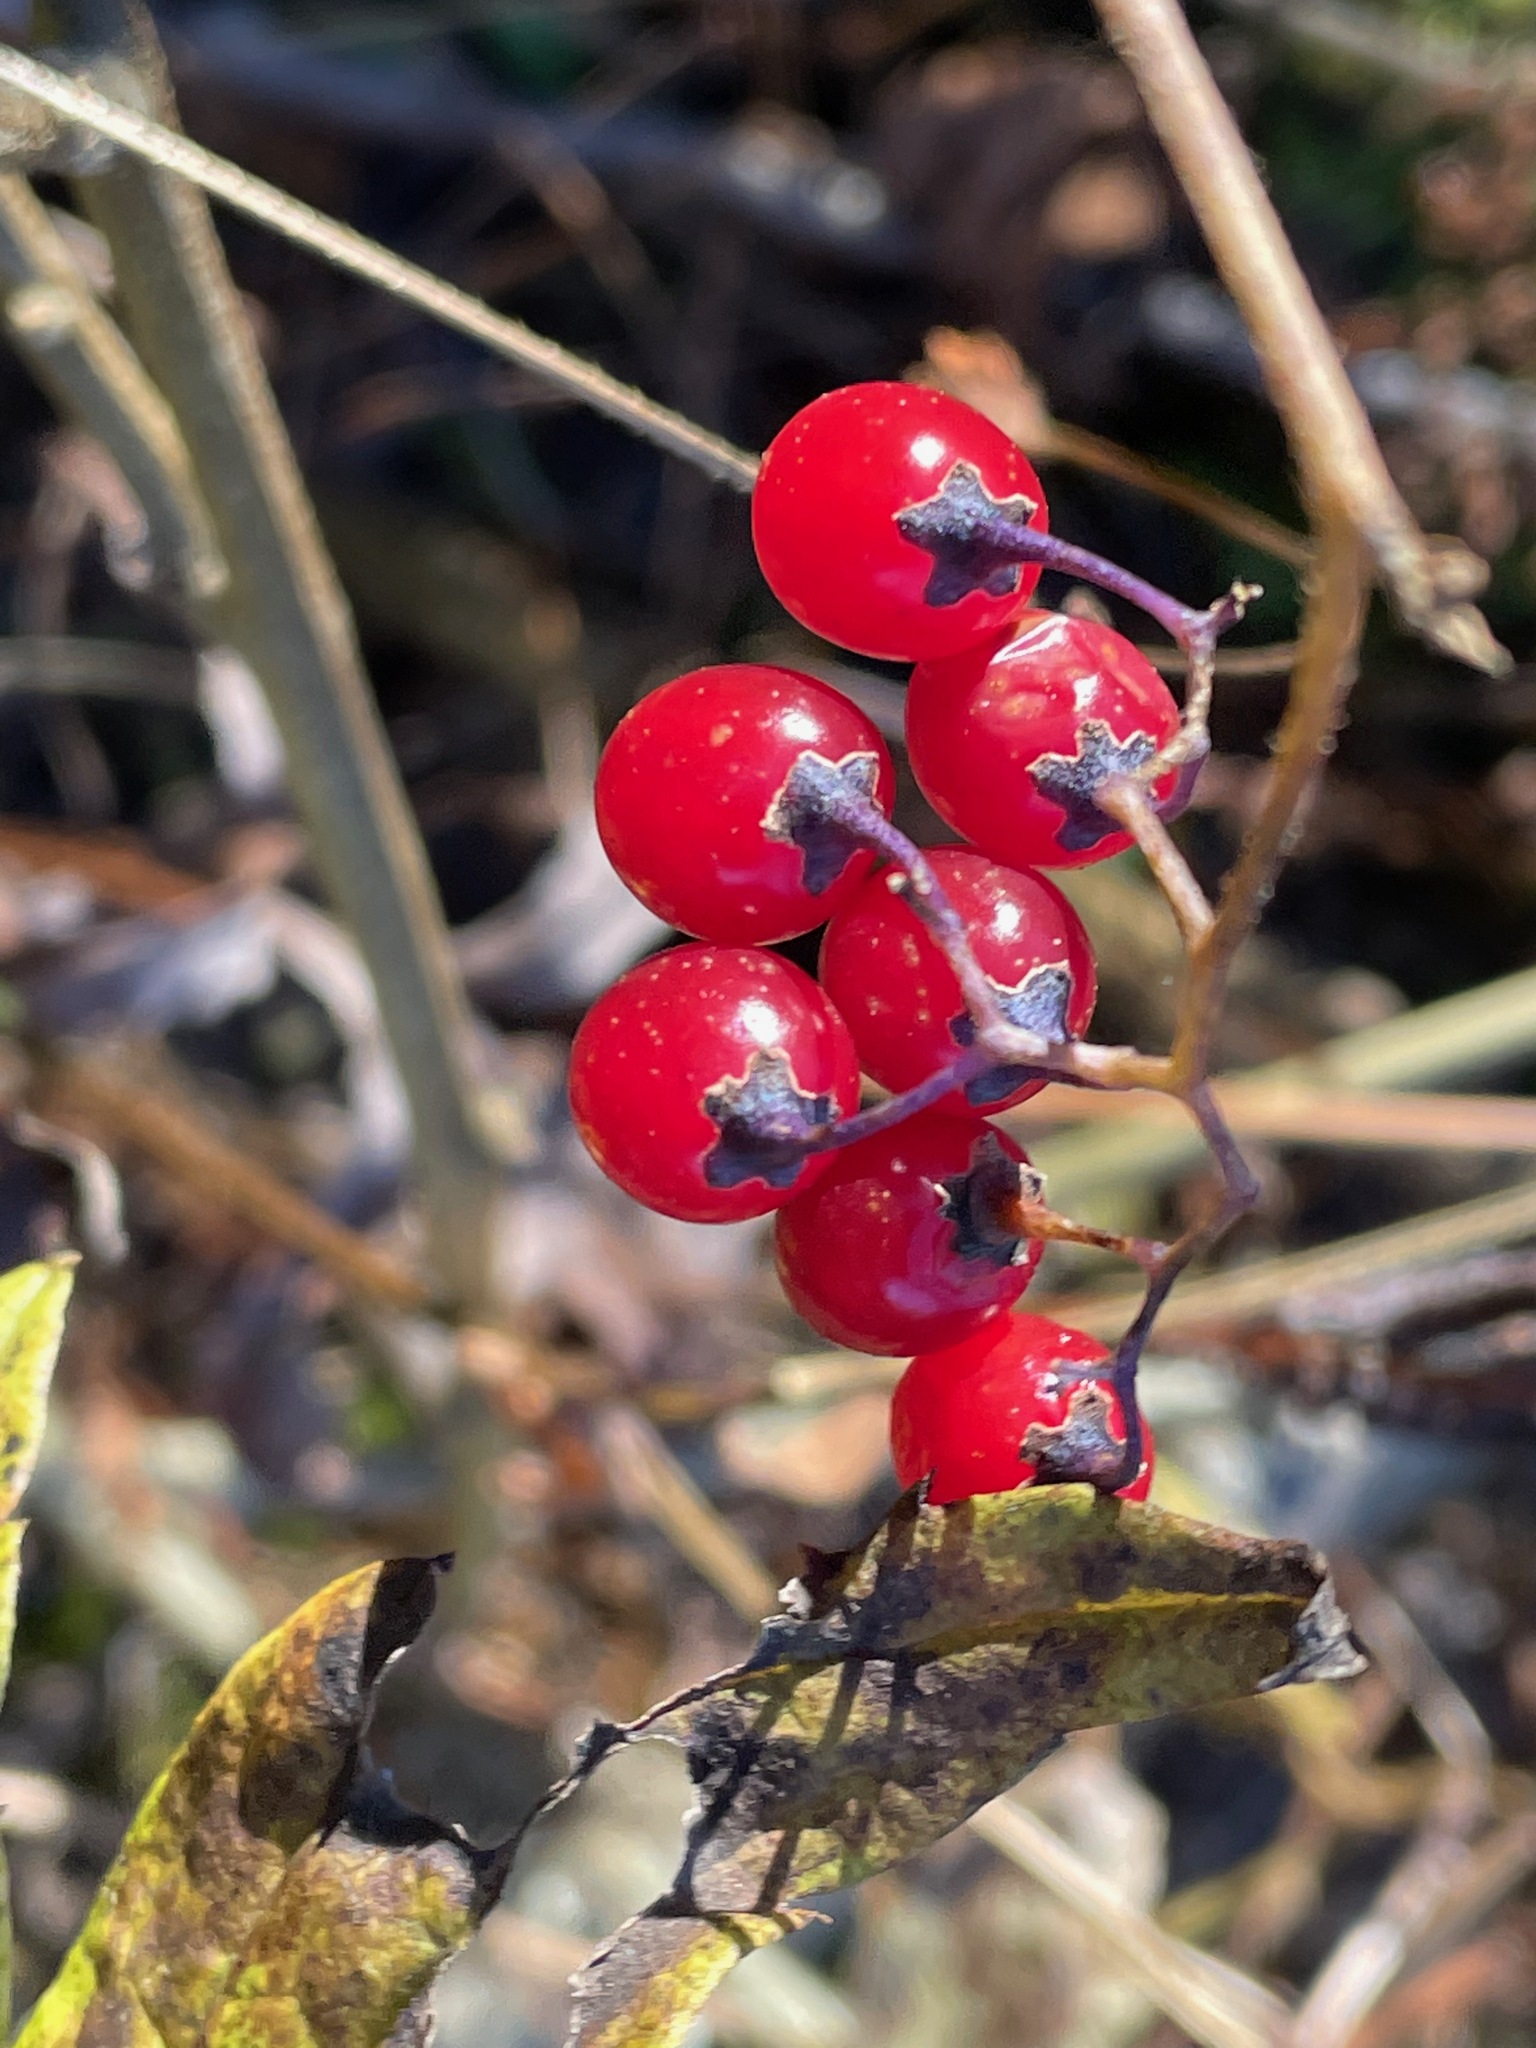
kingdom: Plantae
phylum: Tracheophyta
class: Magnoliopsida
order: Solanales
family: Solanaceae
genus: Solanum
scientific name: Solanum dulcamara
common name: Climbing nightshade
